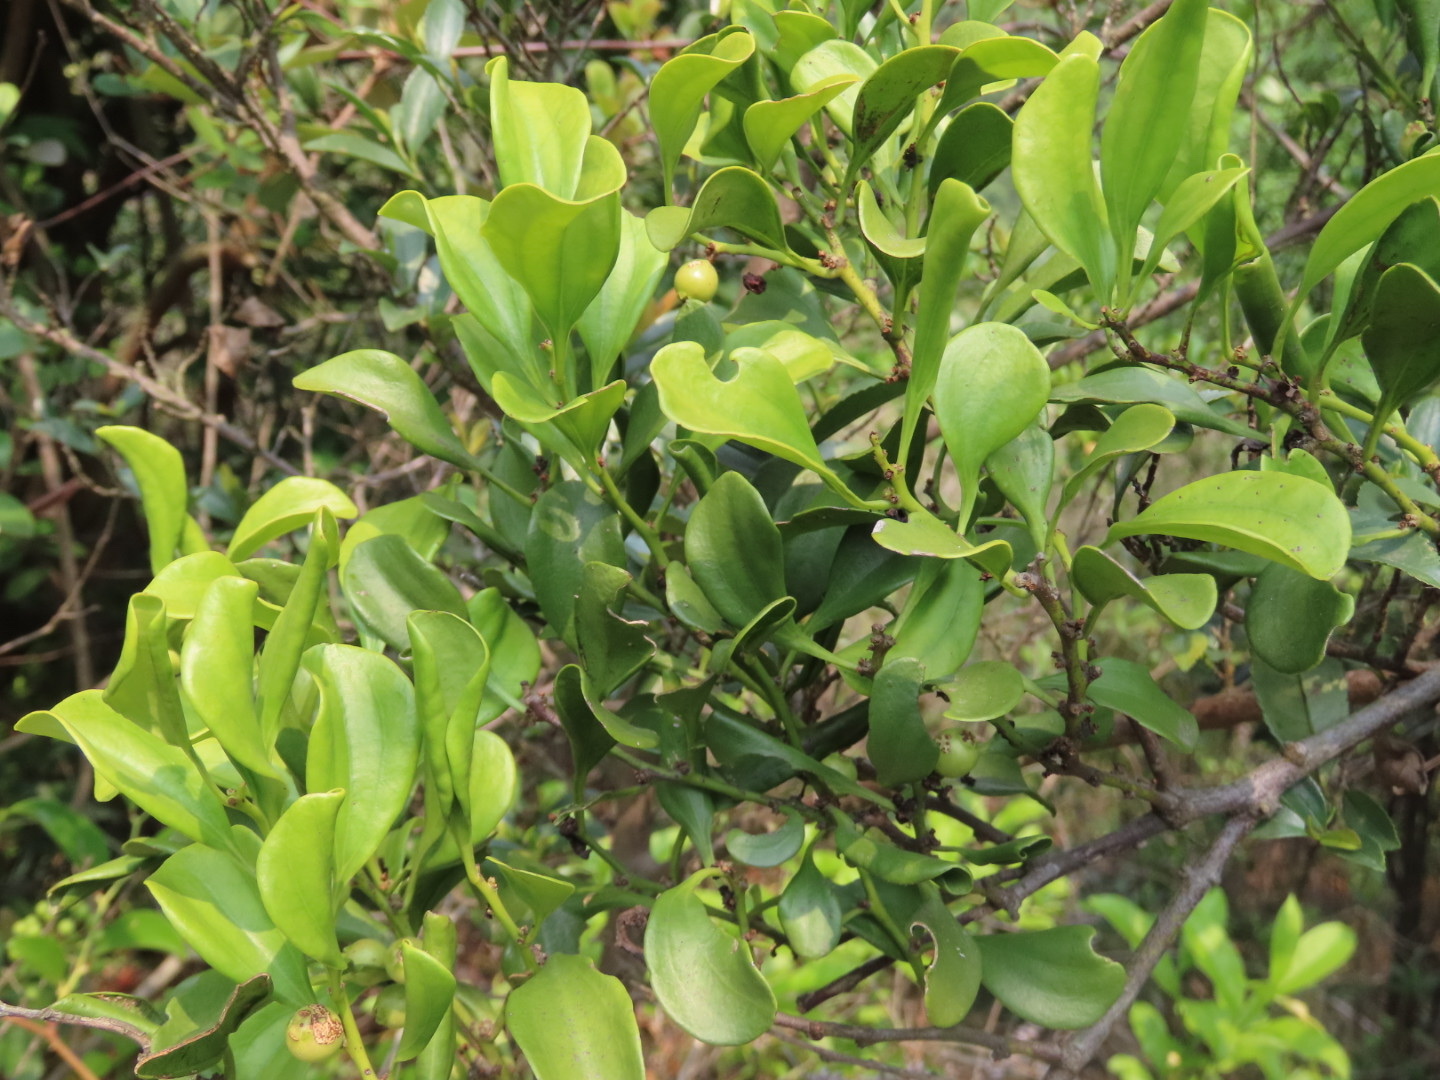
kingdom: Plantae
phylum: Tracheophyta
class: Magnoliopsida
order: Santalales
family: Amphorogynaceae
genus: Dendrotrophe
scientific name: Dendrotrophe varians
